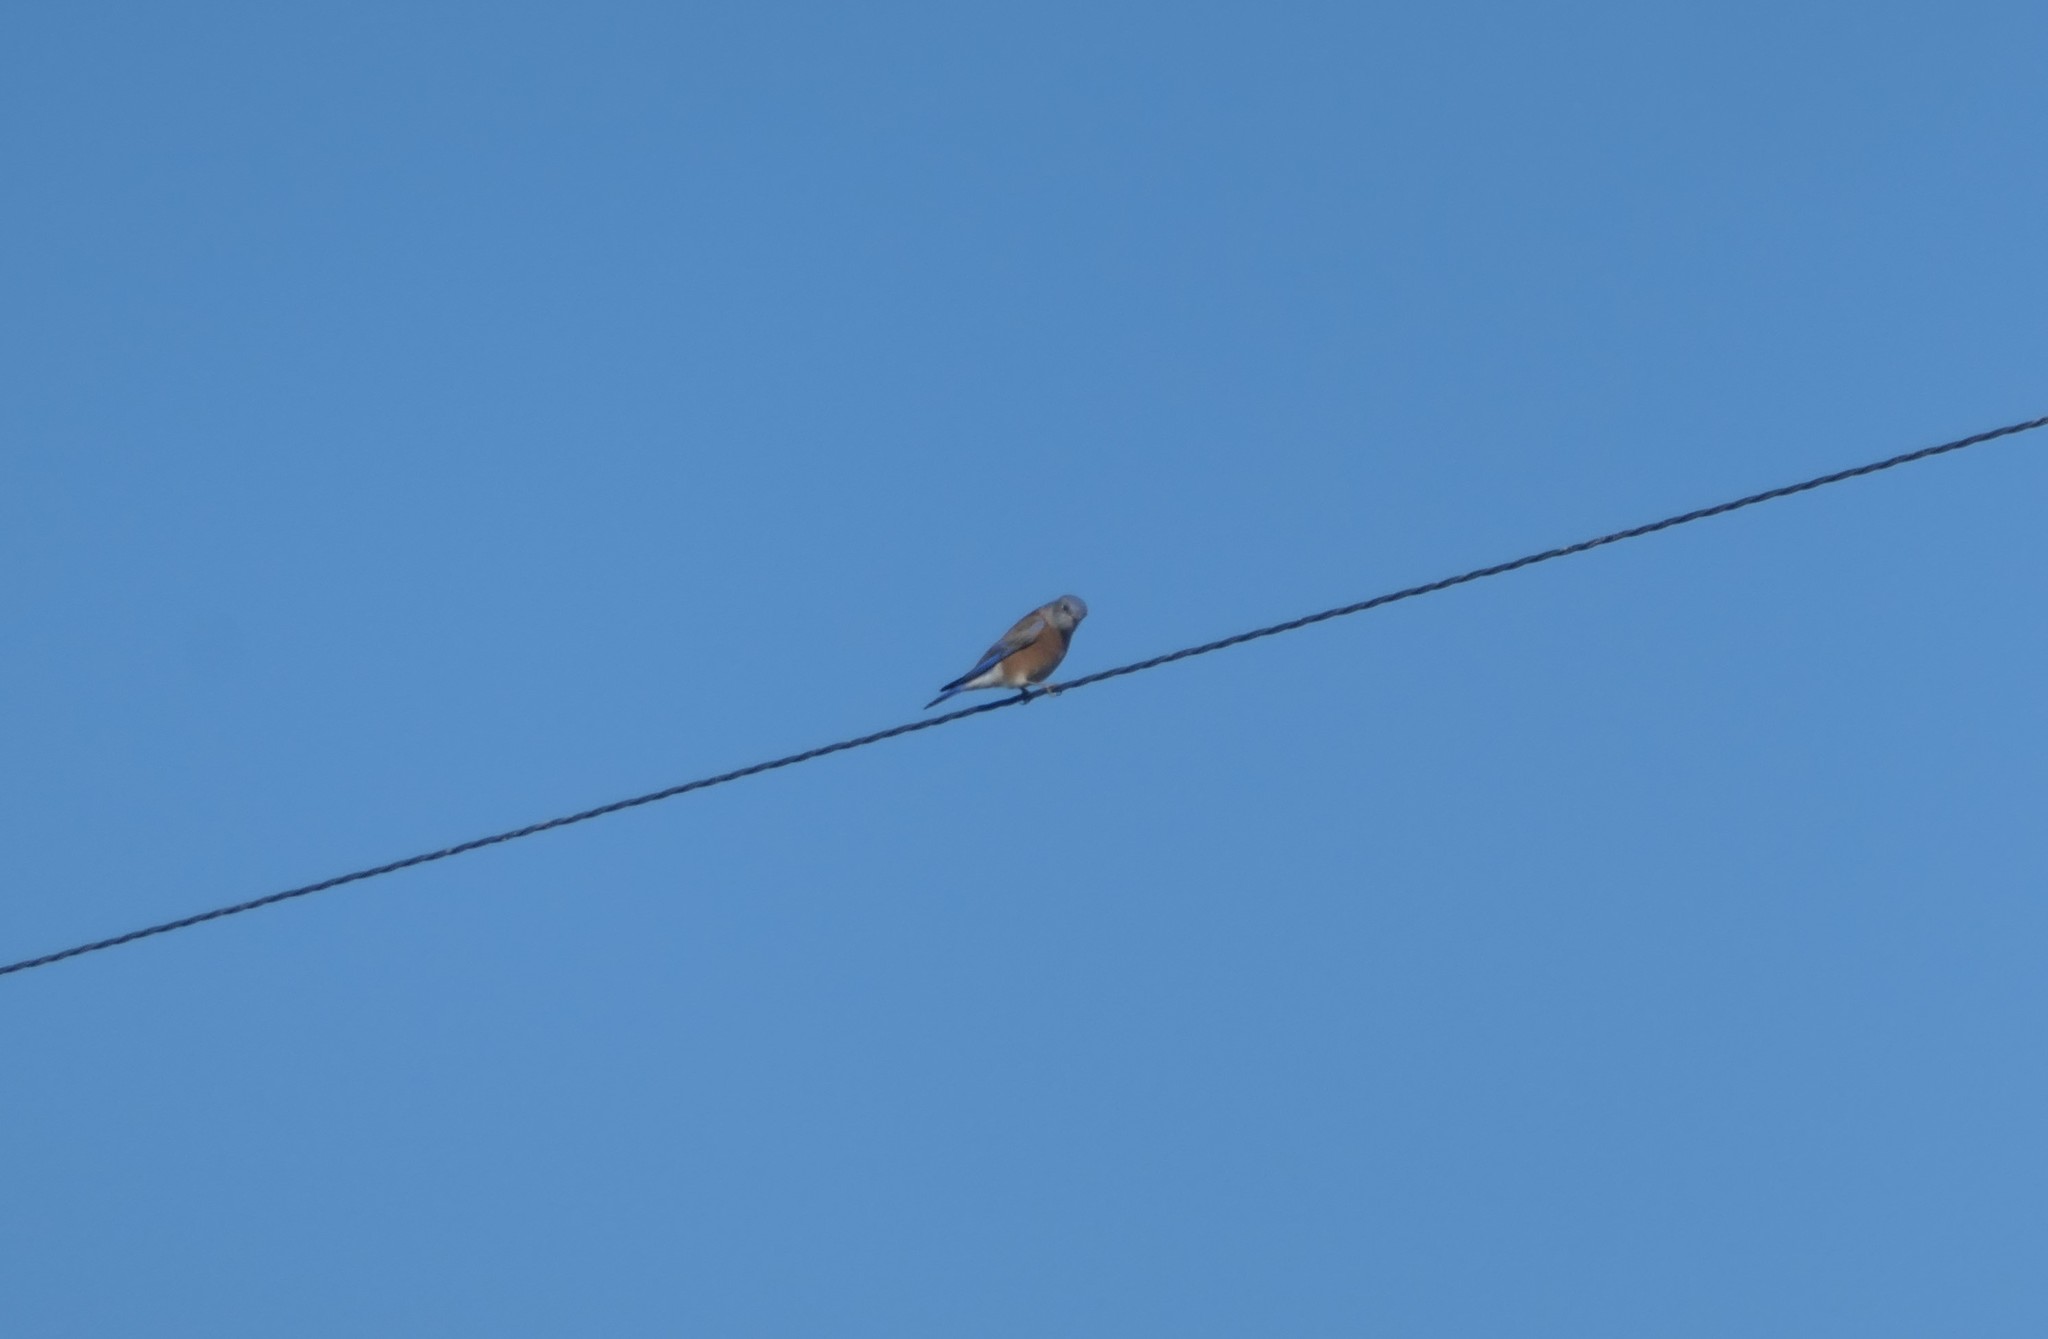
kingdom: Animalia
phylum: Chordata
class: Aves
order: Passeriformes
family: Turdidae
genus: Sialia
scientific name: Sialia mexicana
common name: Western bluebird
